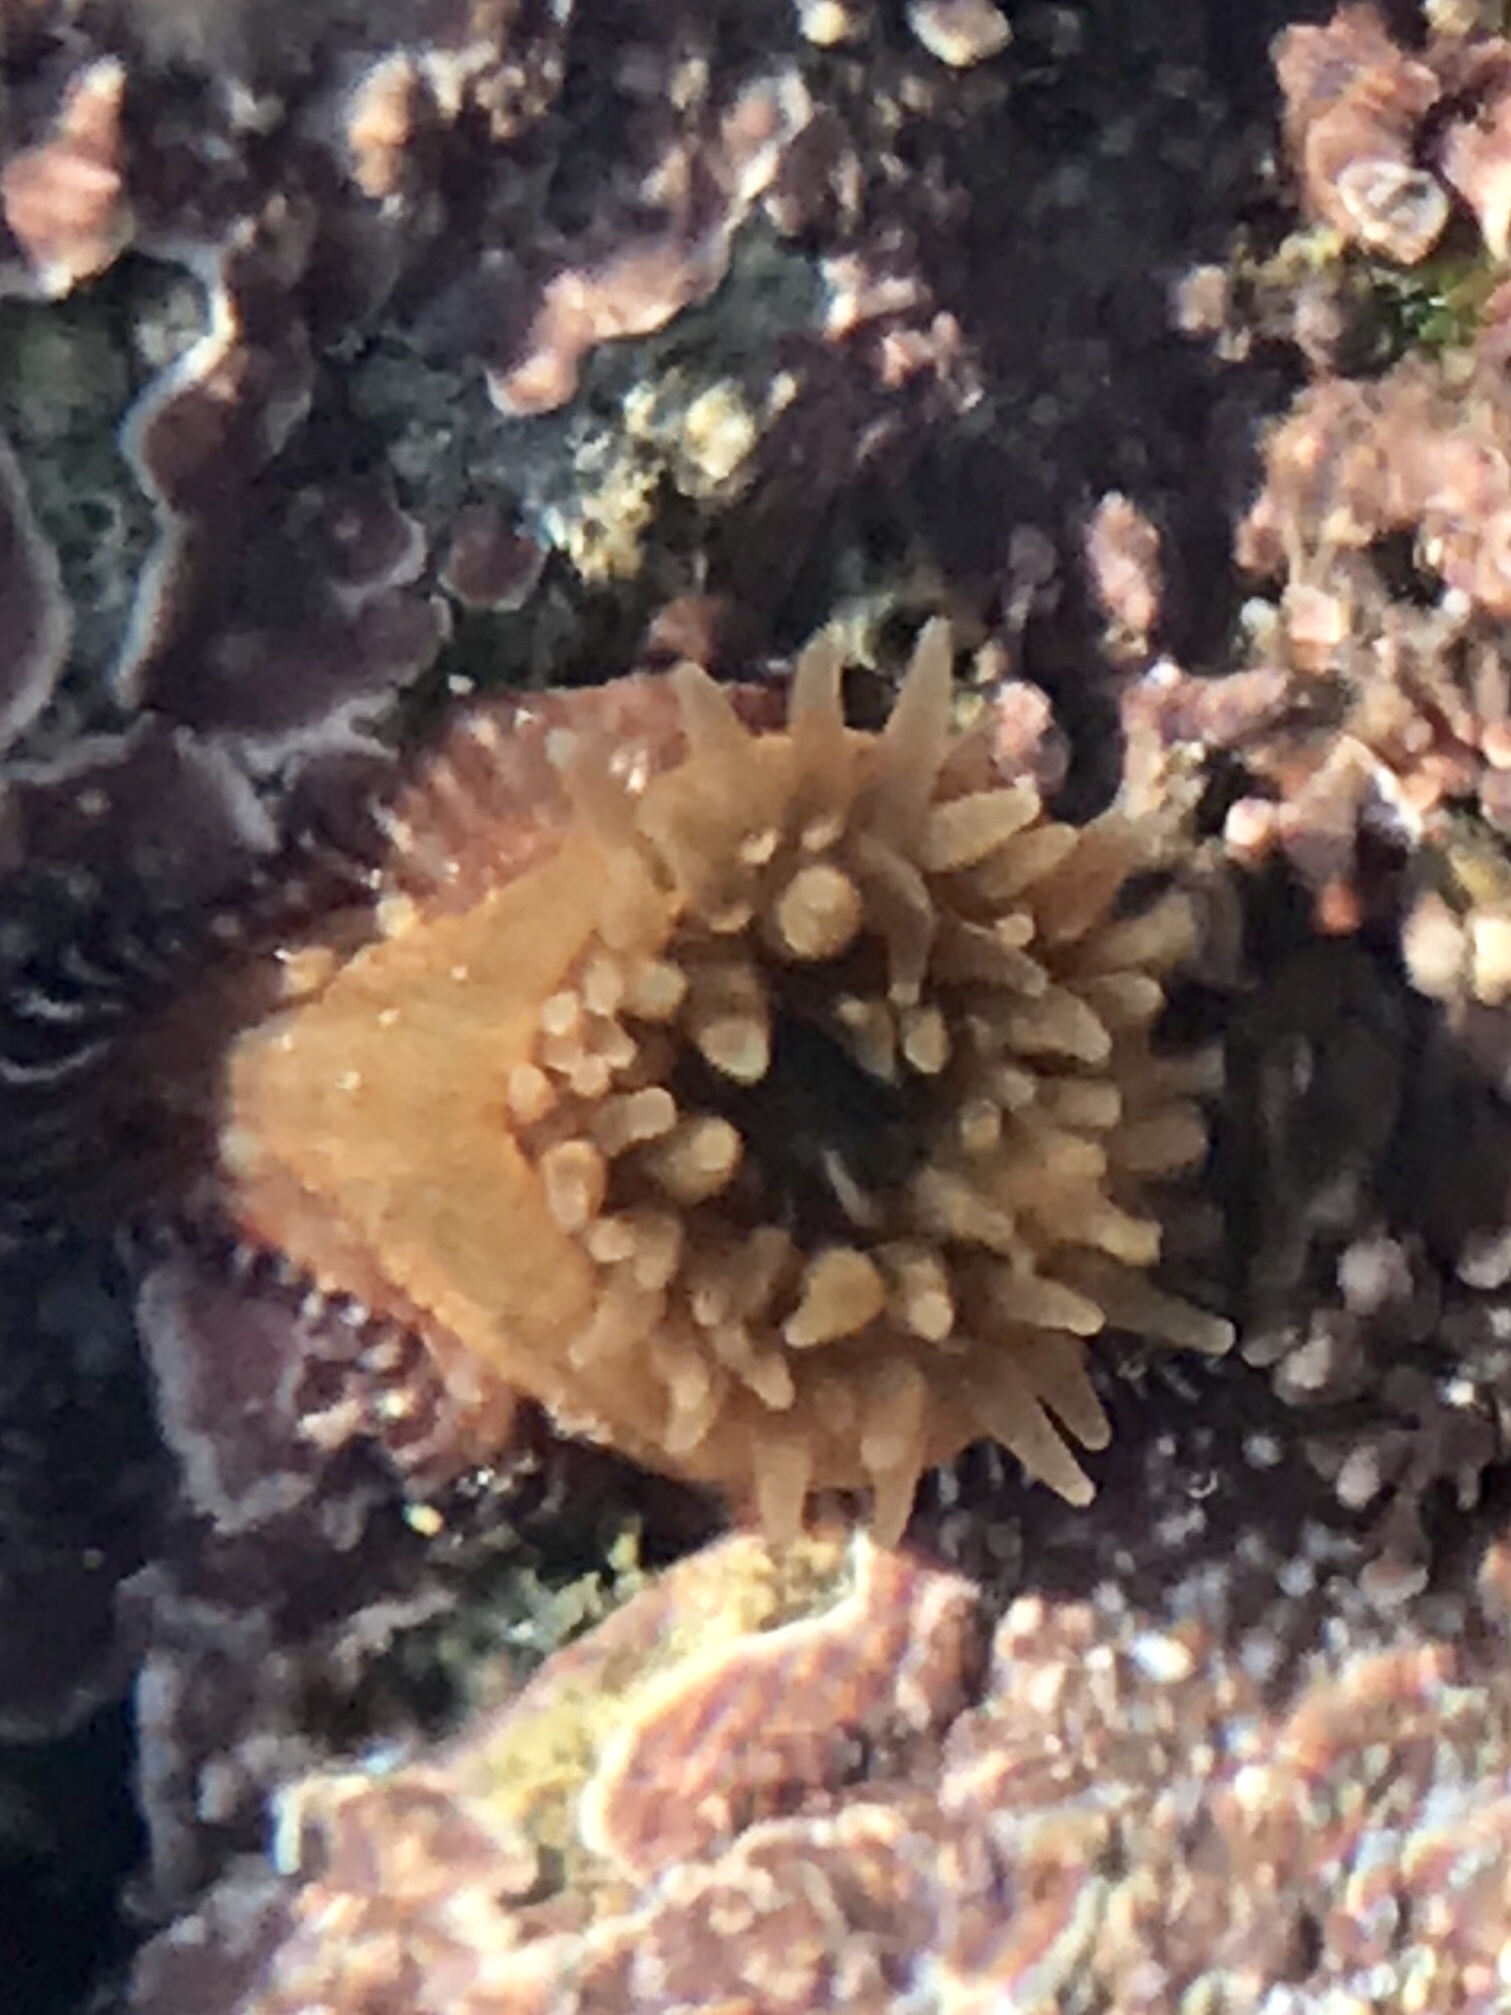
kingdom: Animalia
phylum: Cnidaria
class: Anthozoa
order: Actiniaria
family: Actiniidae
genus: Epiactis
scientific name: Epiactis prolifera
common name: Brooding anemone
